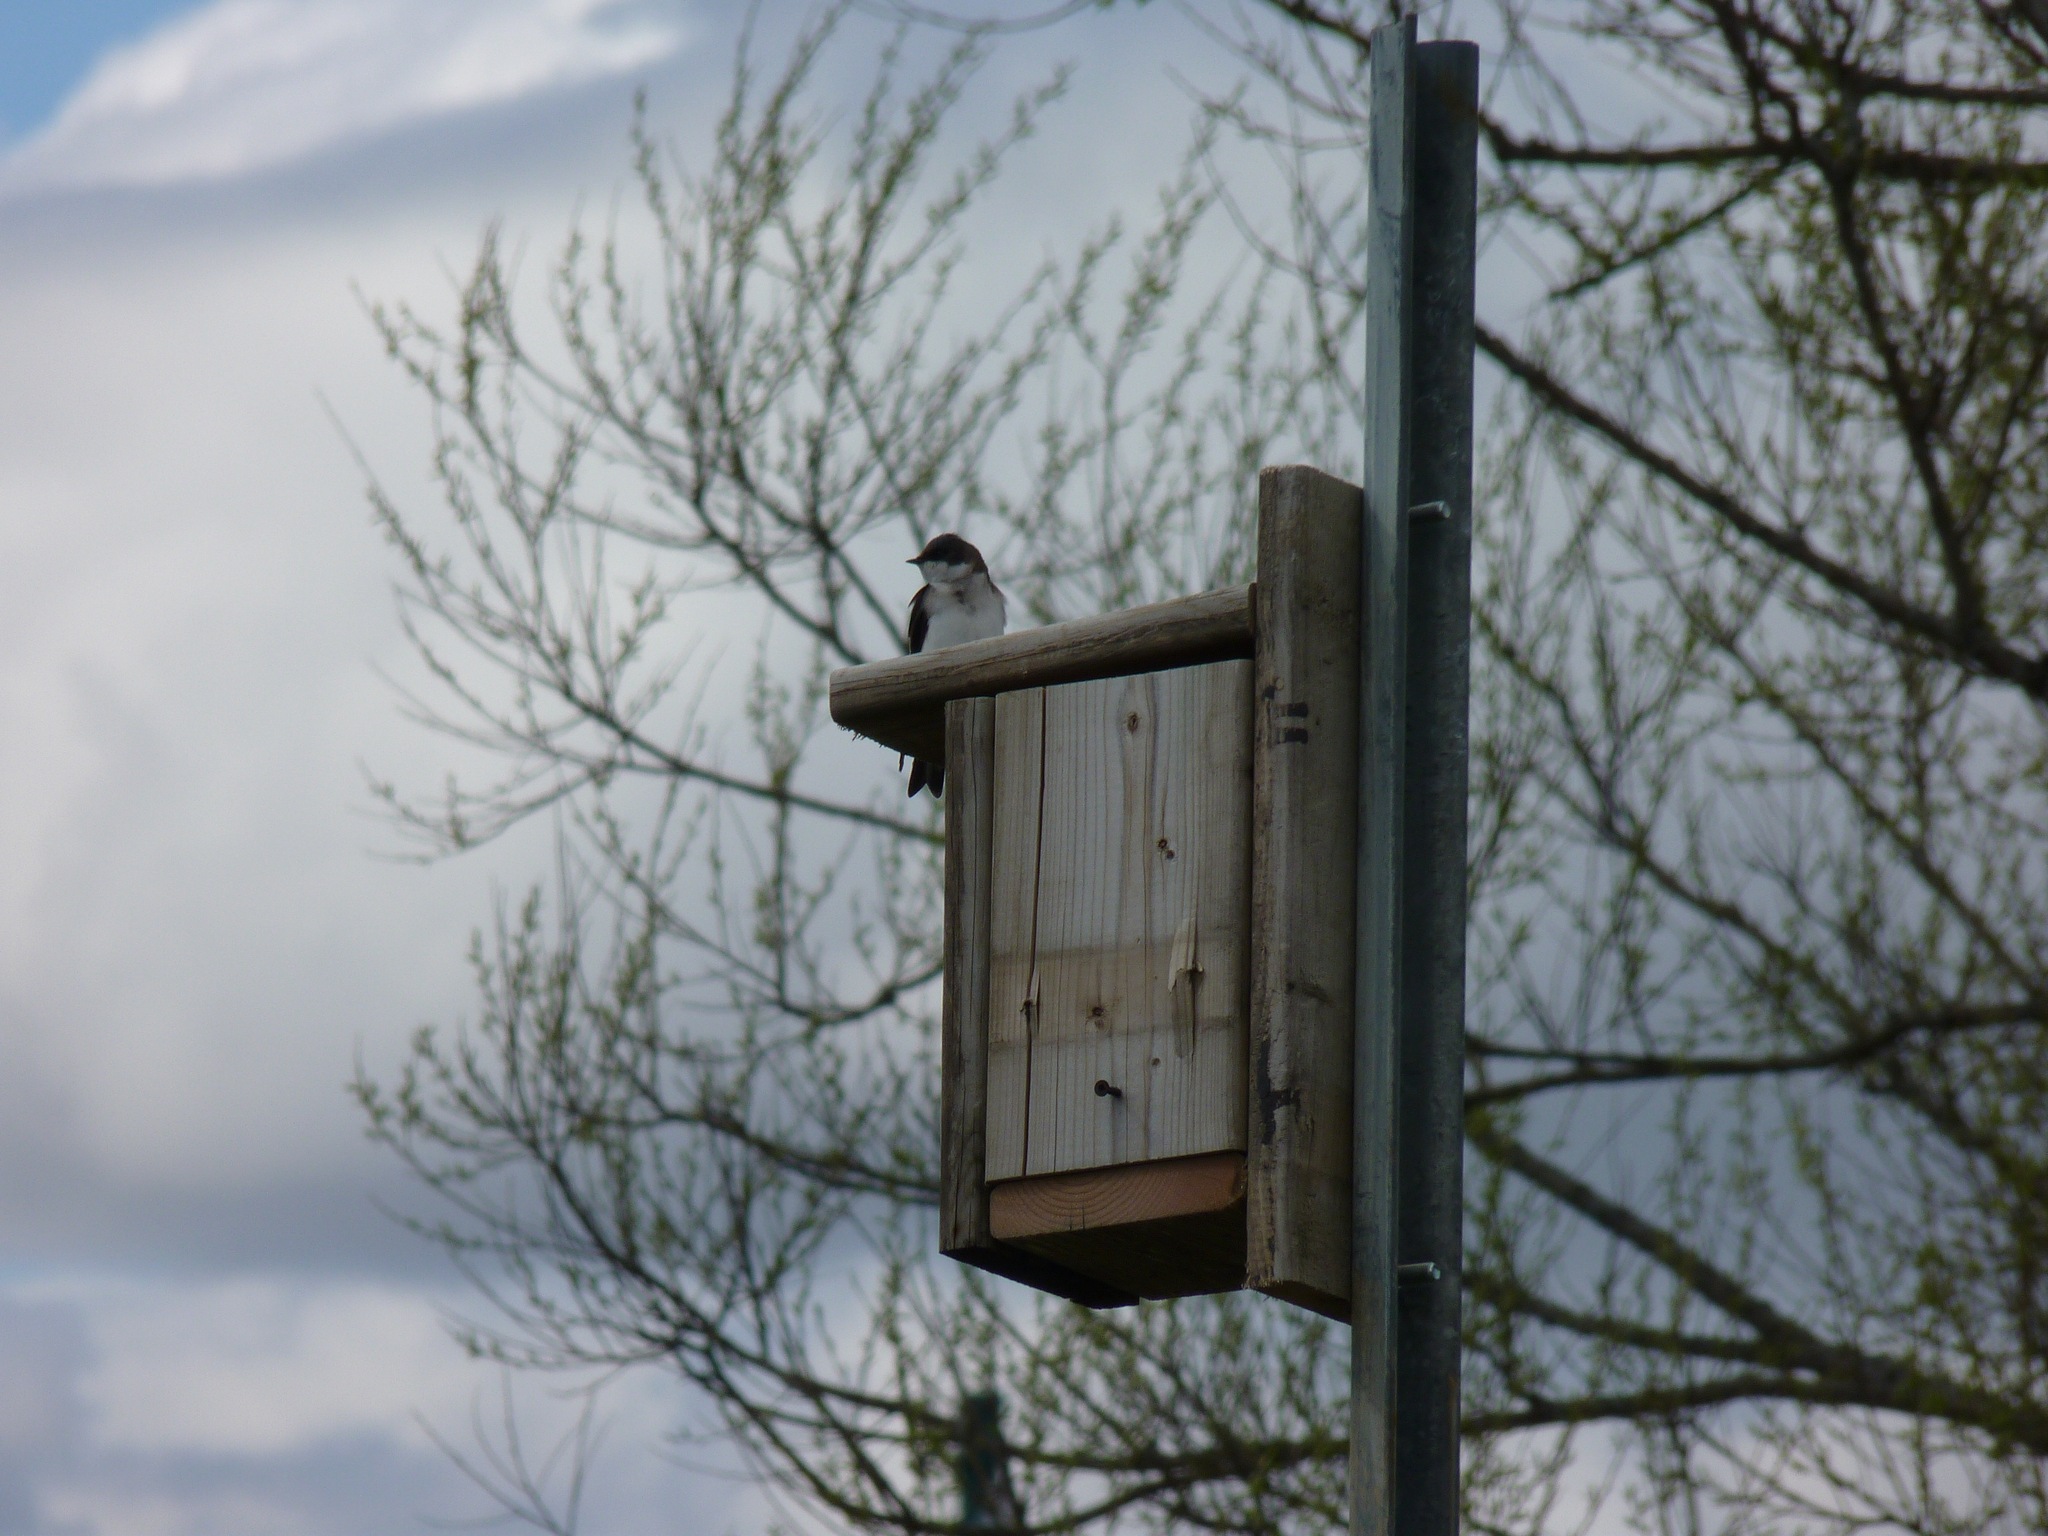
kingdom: Animalia
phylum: Chordata
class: Aves
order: Passeriformes
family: Hirundinidae
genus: Tachycineta
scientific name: Tachycineta bicolor
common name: Tree swallow
